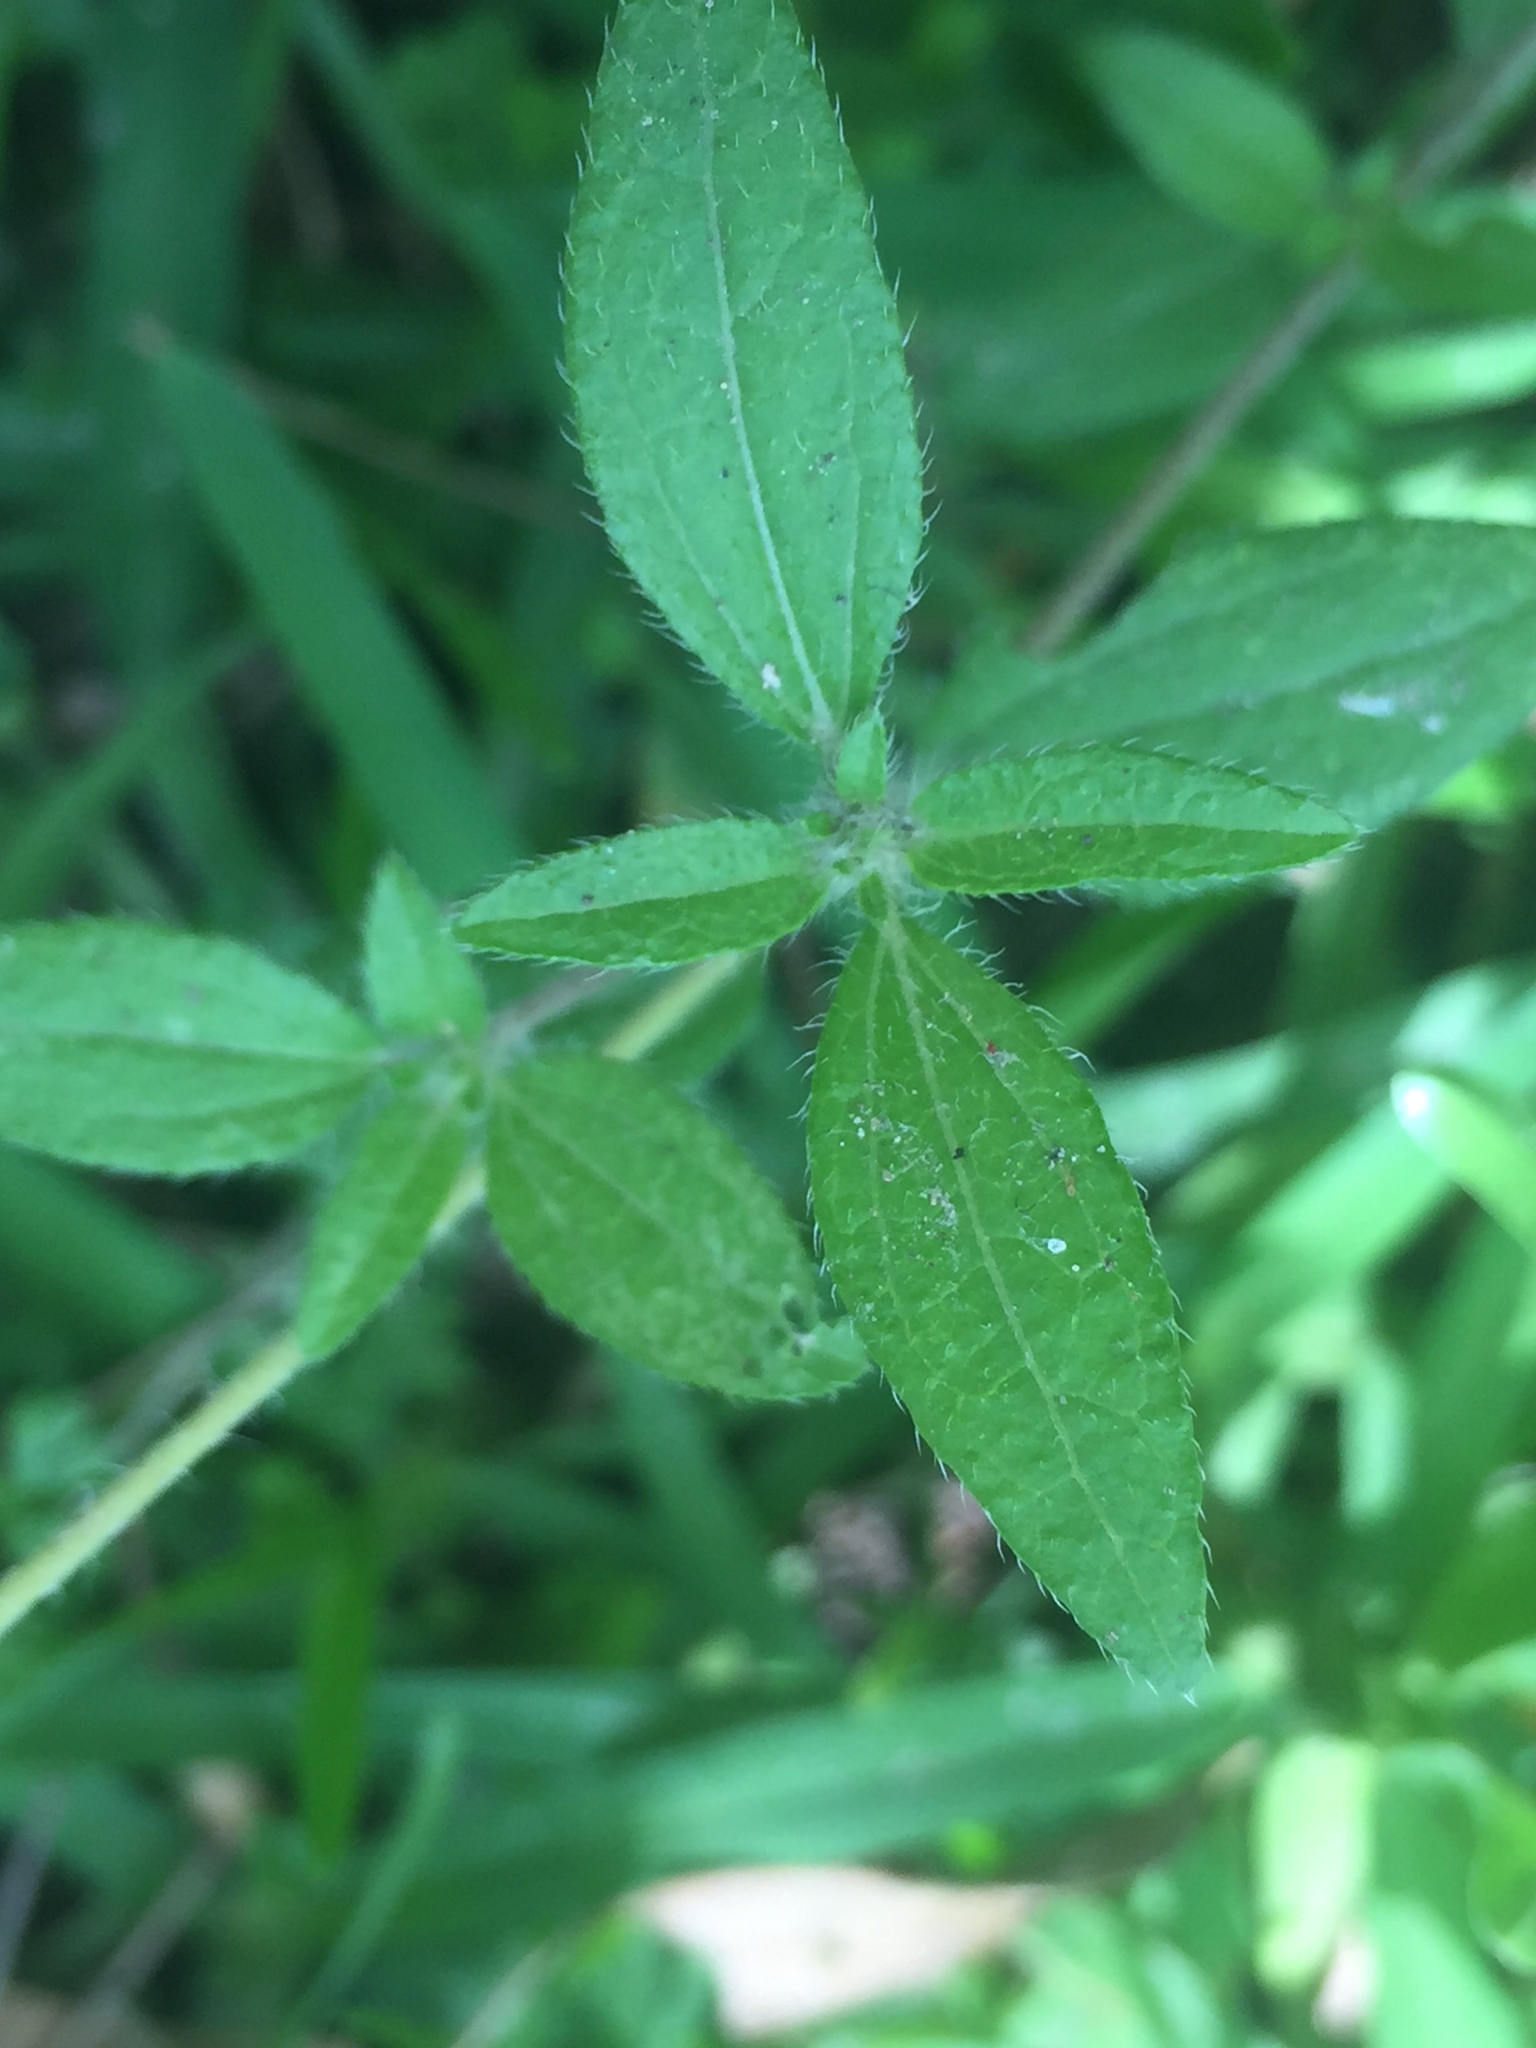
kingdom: Plantae
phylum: Tracheophyta
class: Magnoliopsida
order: Asterales
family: Asteraceae
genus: Sanvitalia
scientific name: Sanvitalia procumbens
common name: Mexican creeping zinnia
